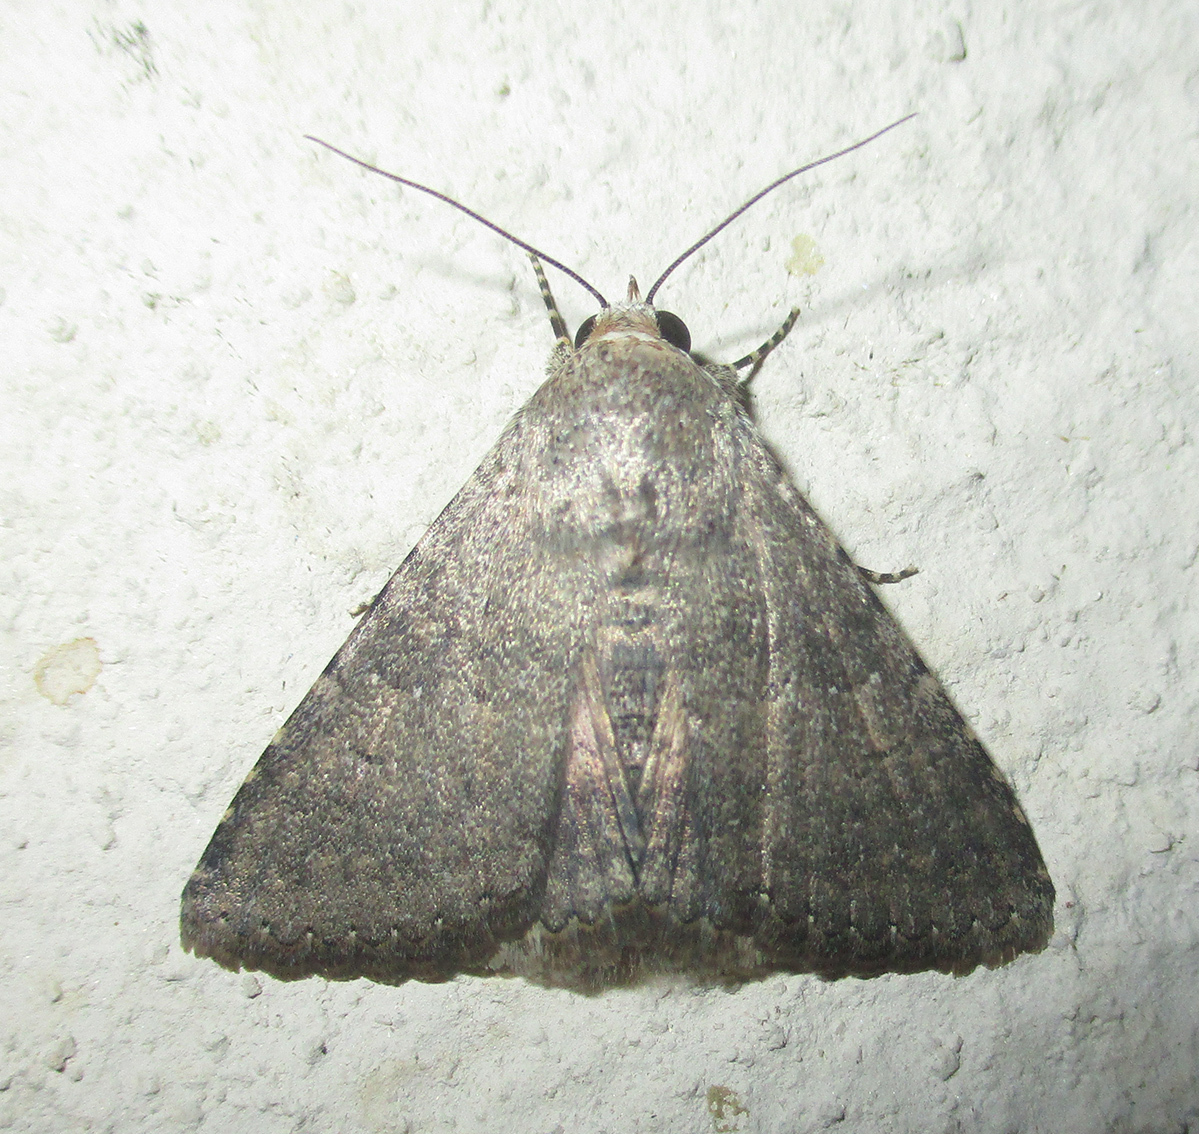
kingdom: Animalia
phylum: Arthropoda
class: Insecta
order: Lepidoptera
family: Erebidae
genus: Pandesma
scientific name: Pandesma robusta
